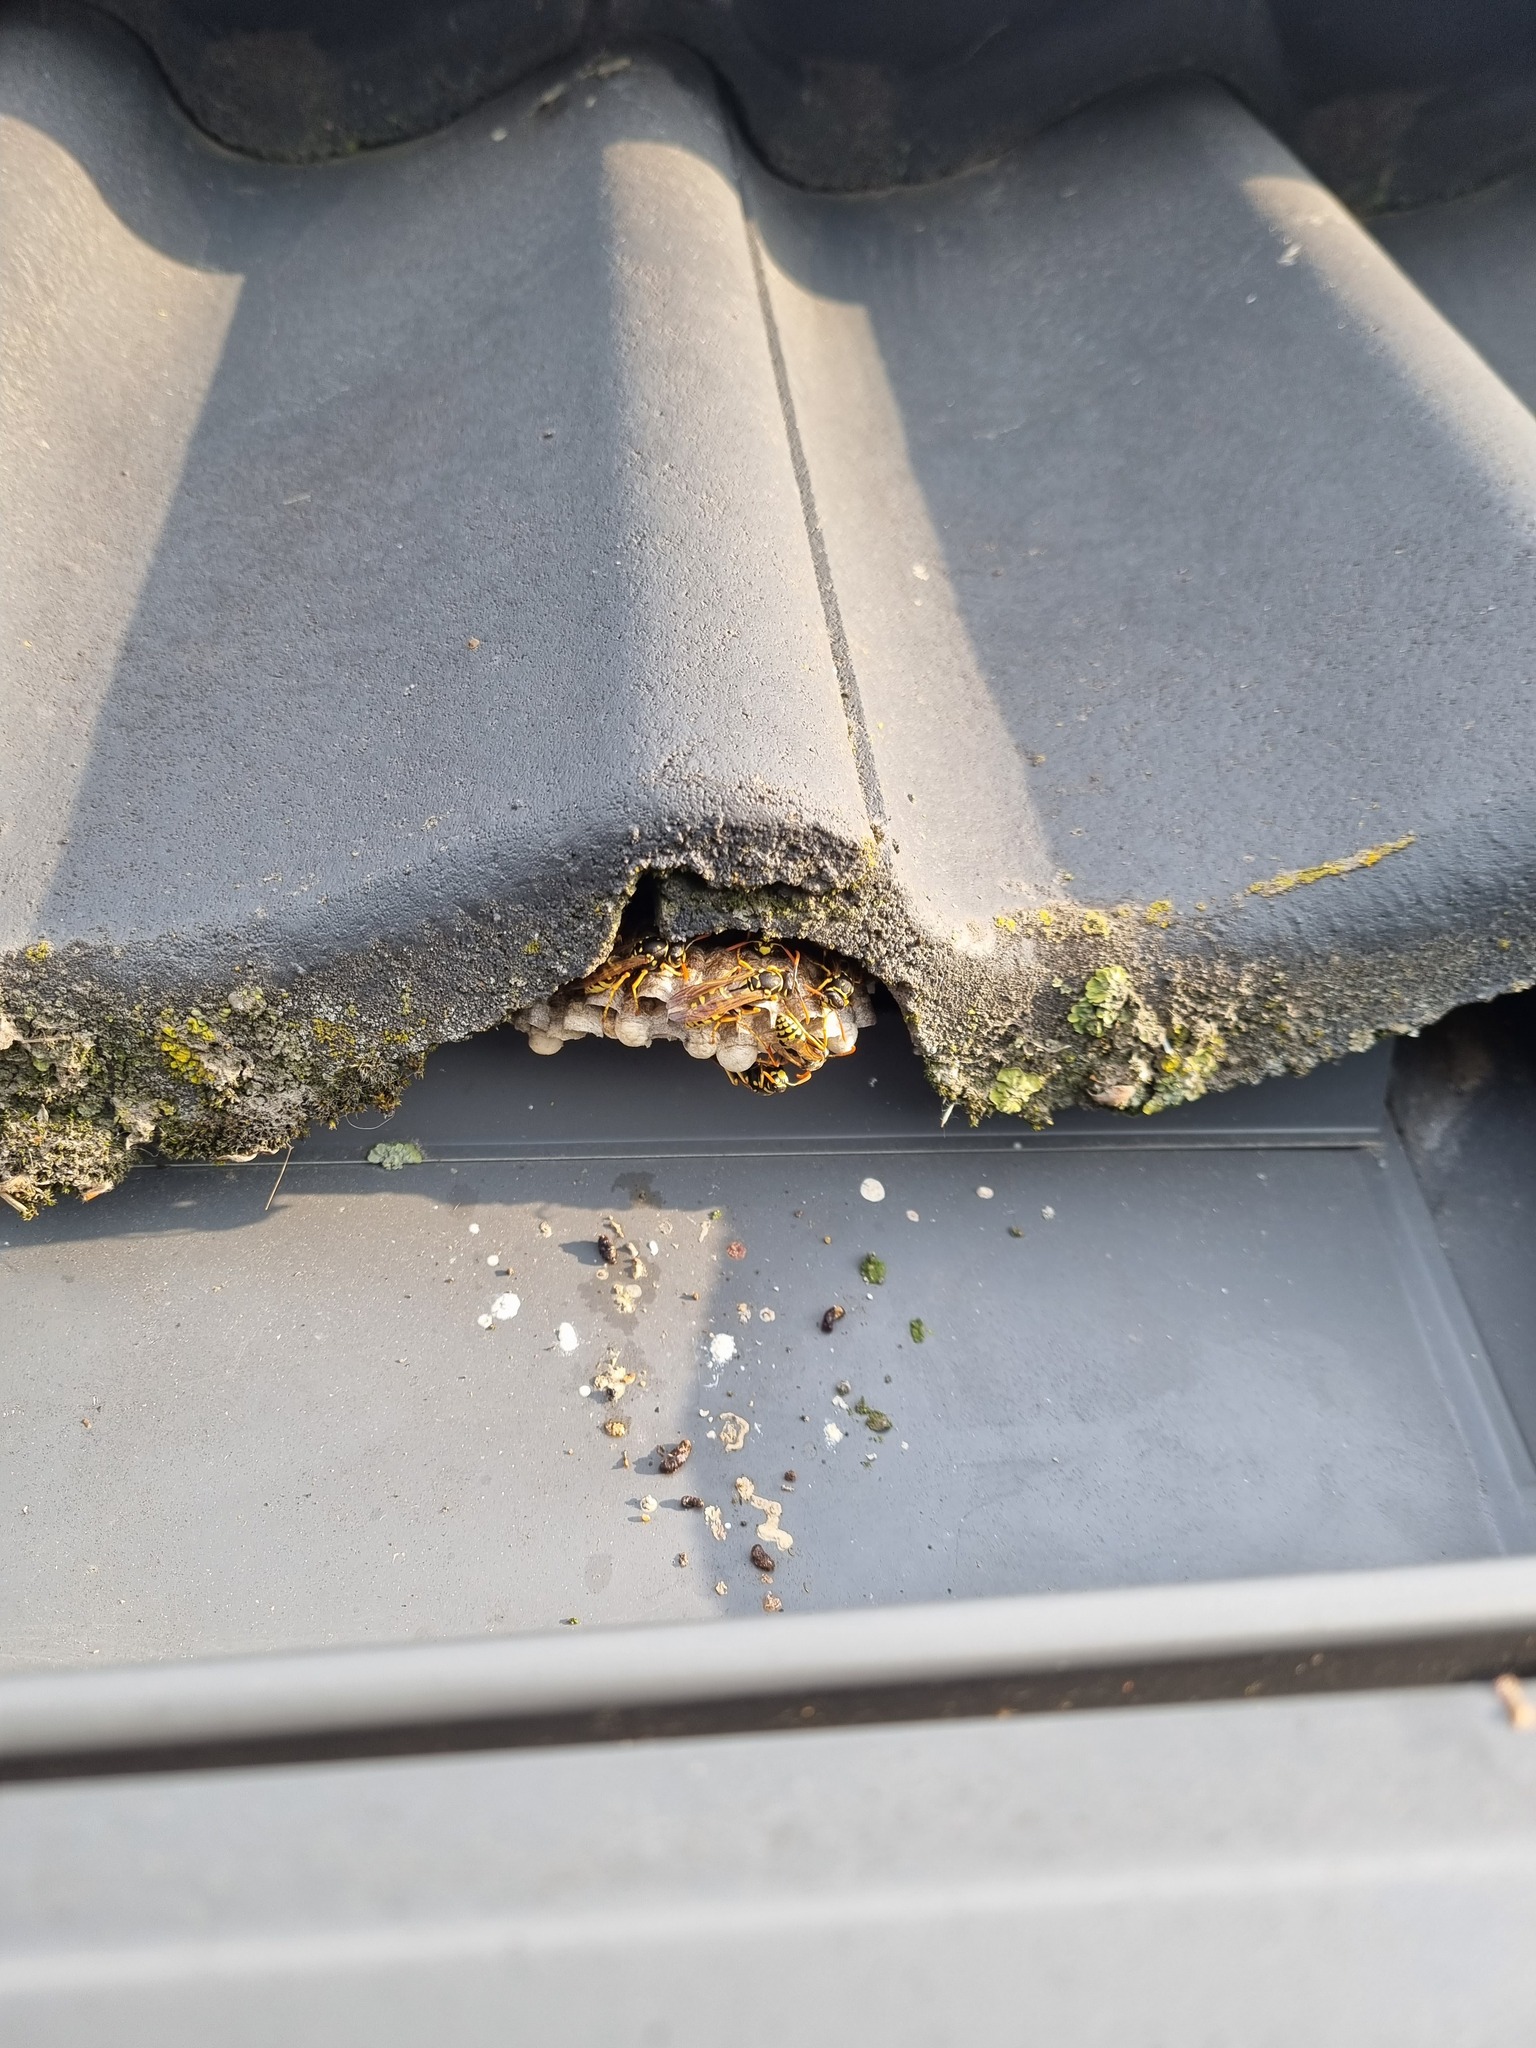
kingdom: Animalia
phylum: Arthropoda
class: Insecta
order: Hymenoptera
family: Eumenidae
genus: Polistes
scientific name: Polistes dominula
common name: Paper wasp
